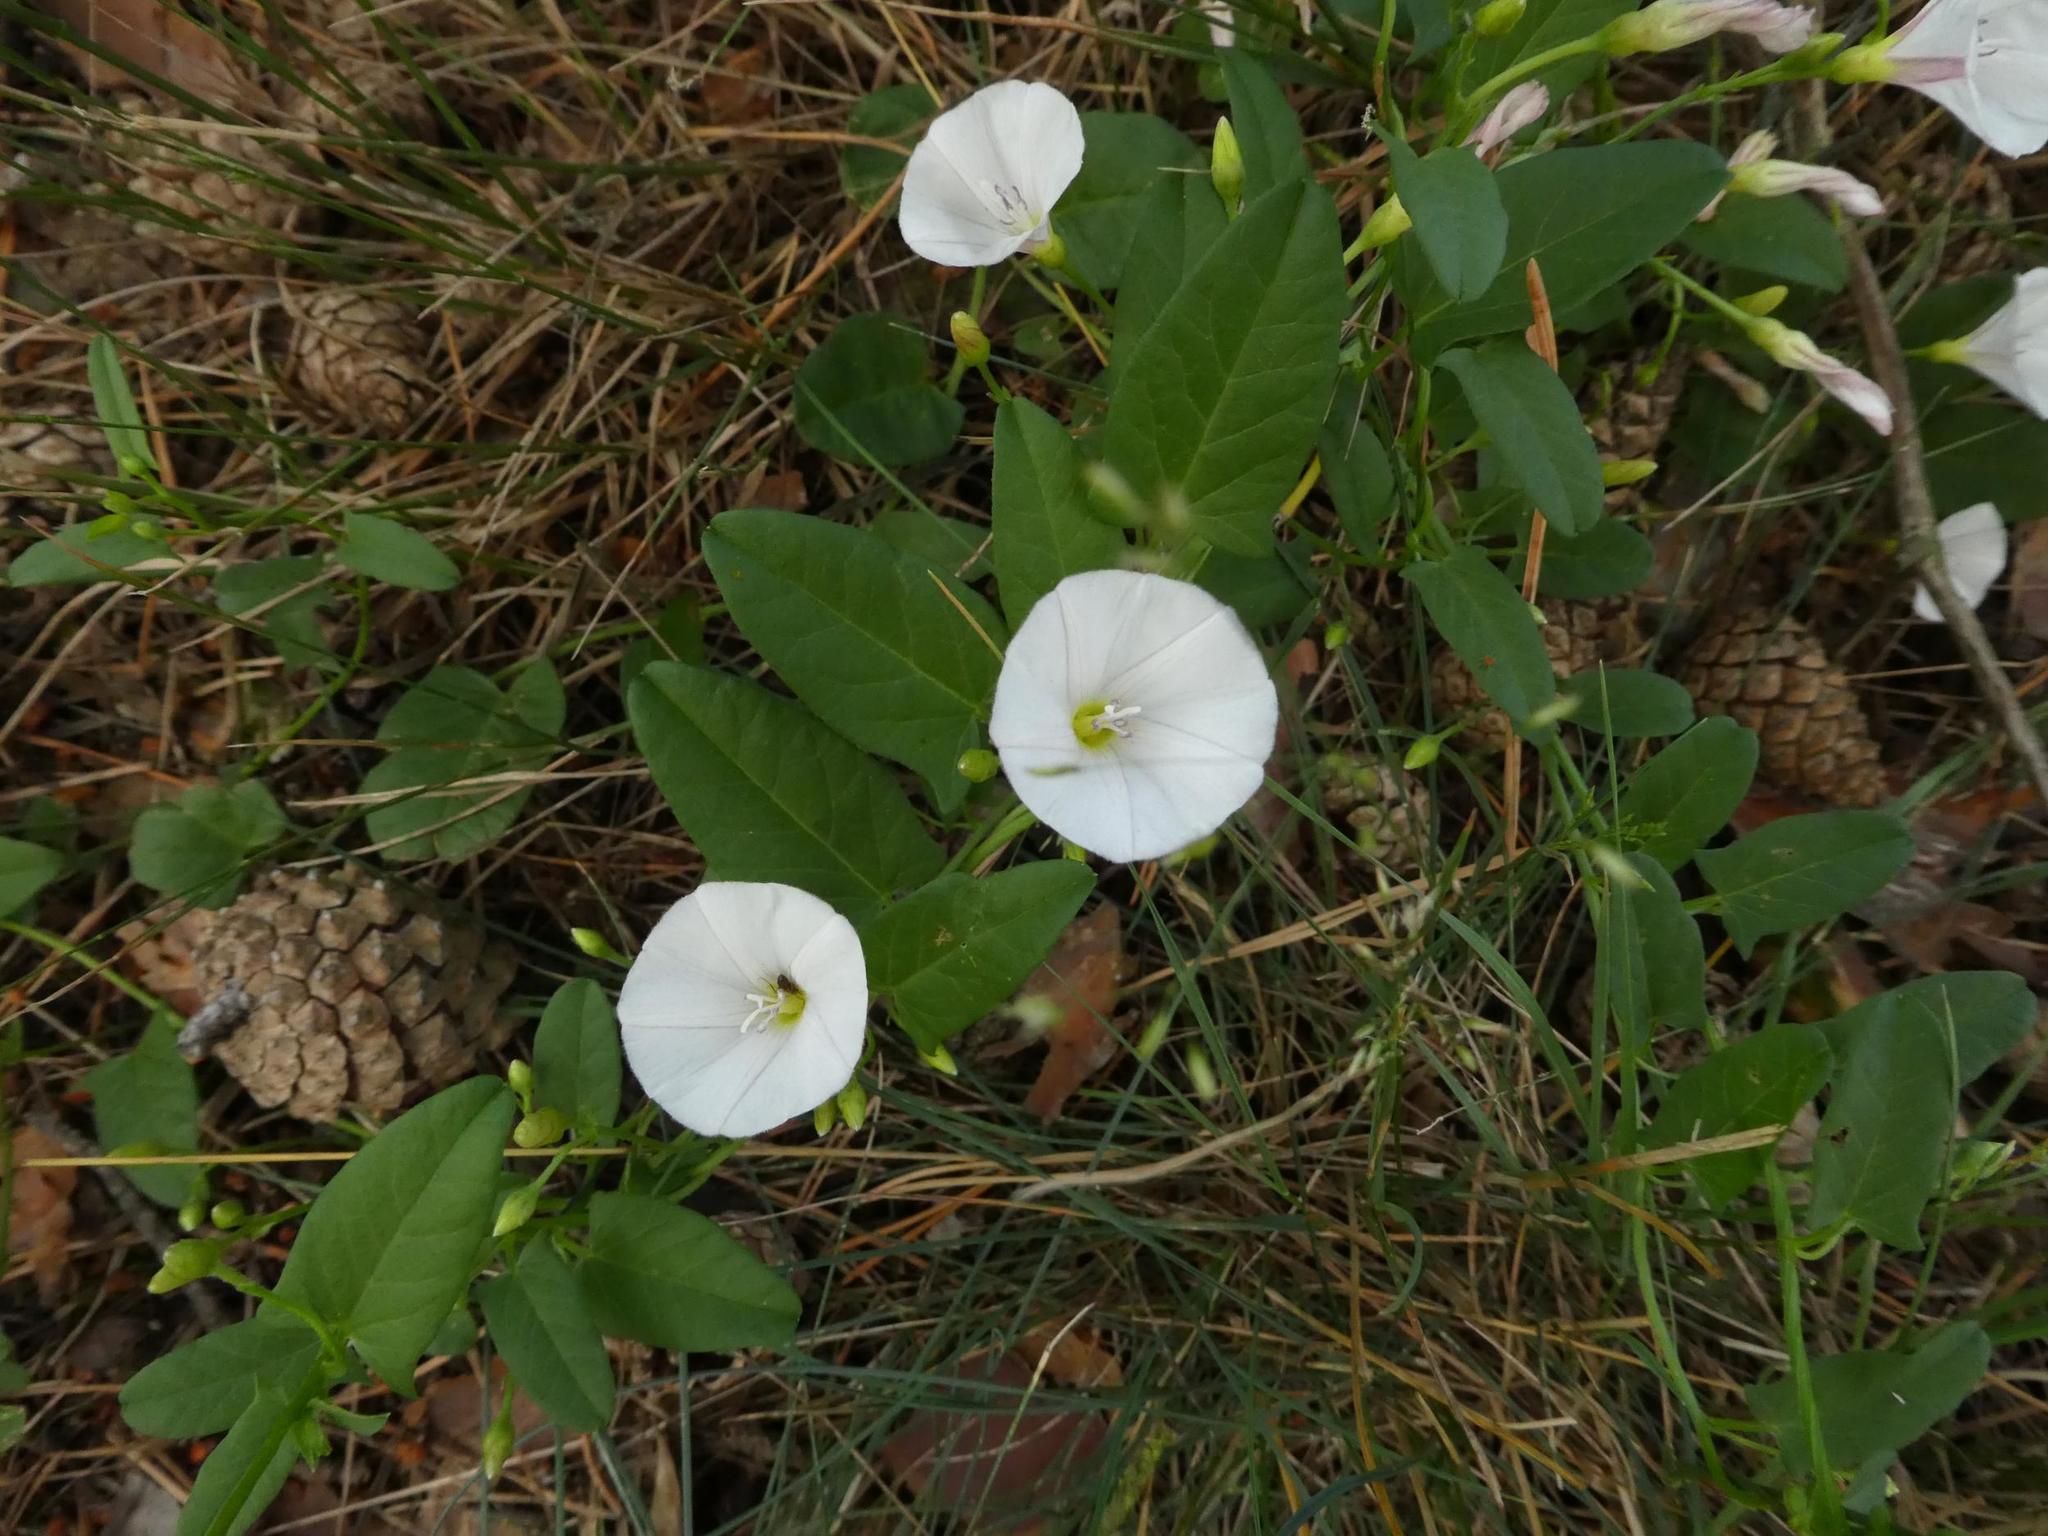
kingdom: Plantae
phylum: Tracheophyta
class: Magnoliopsida
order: Solanales
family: Convolvulaceae
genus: Convolvulus
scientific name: Convolvulus arvensis
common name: Field bindweed
